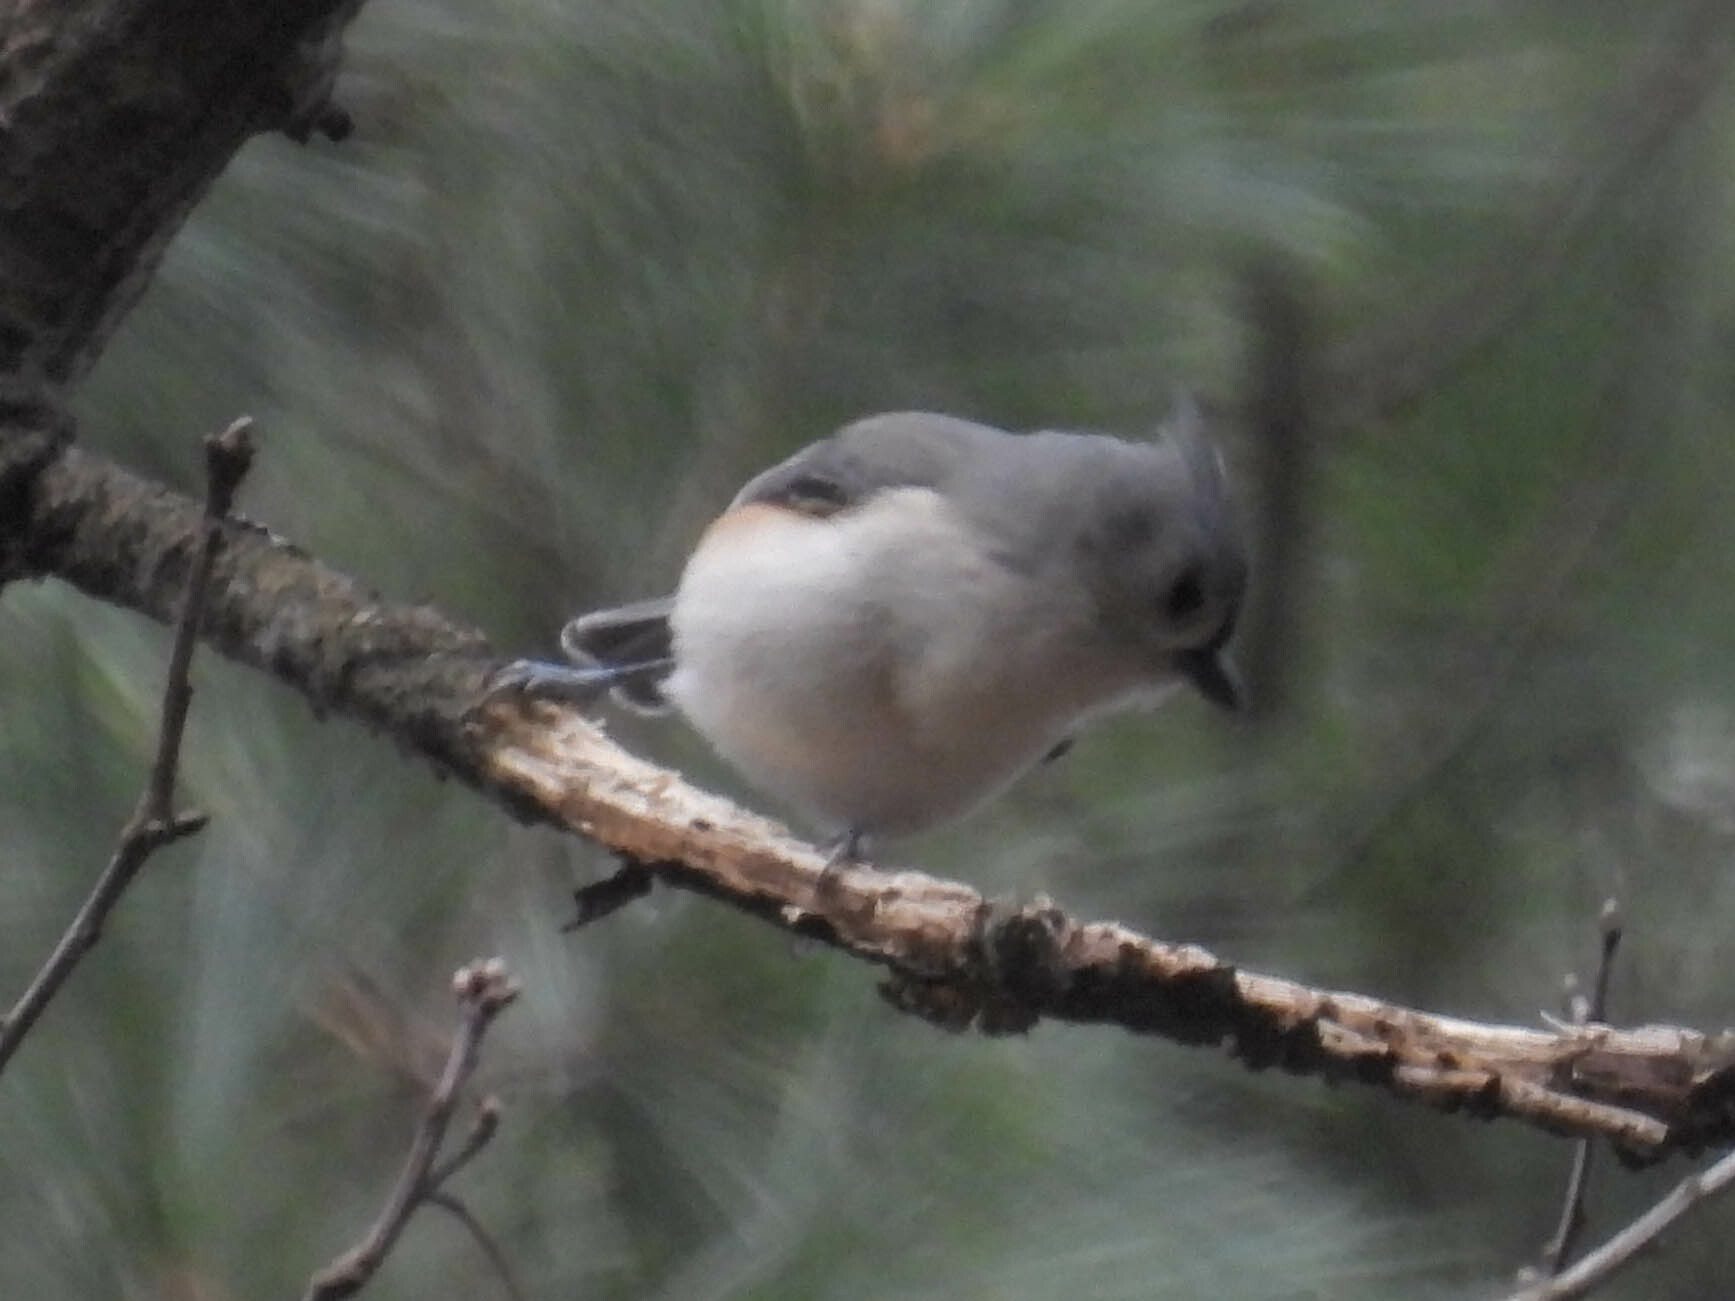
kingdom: Animalia
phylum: Chordata
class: Aves
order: Passeriformes
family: Paridae
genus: Baeolophus
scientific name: Baeolophus bicolor
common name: Tufted titmouse
